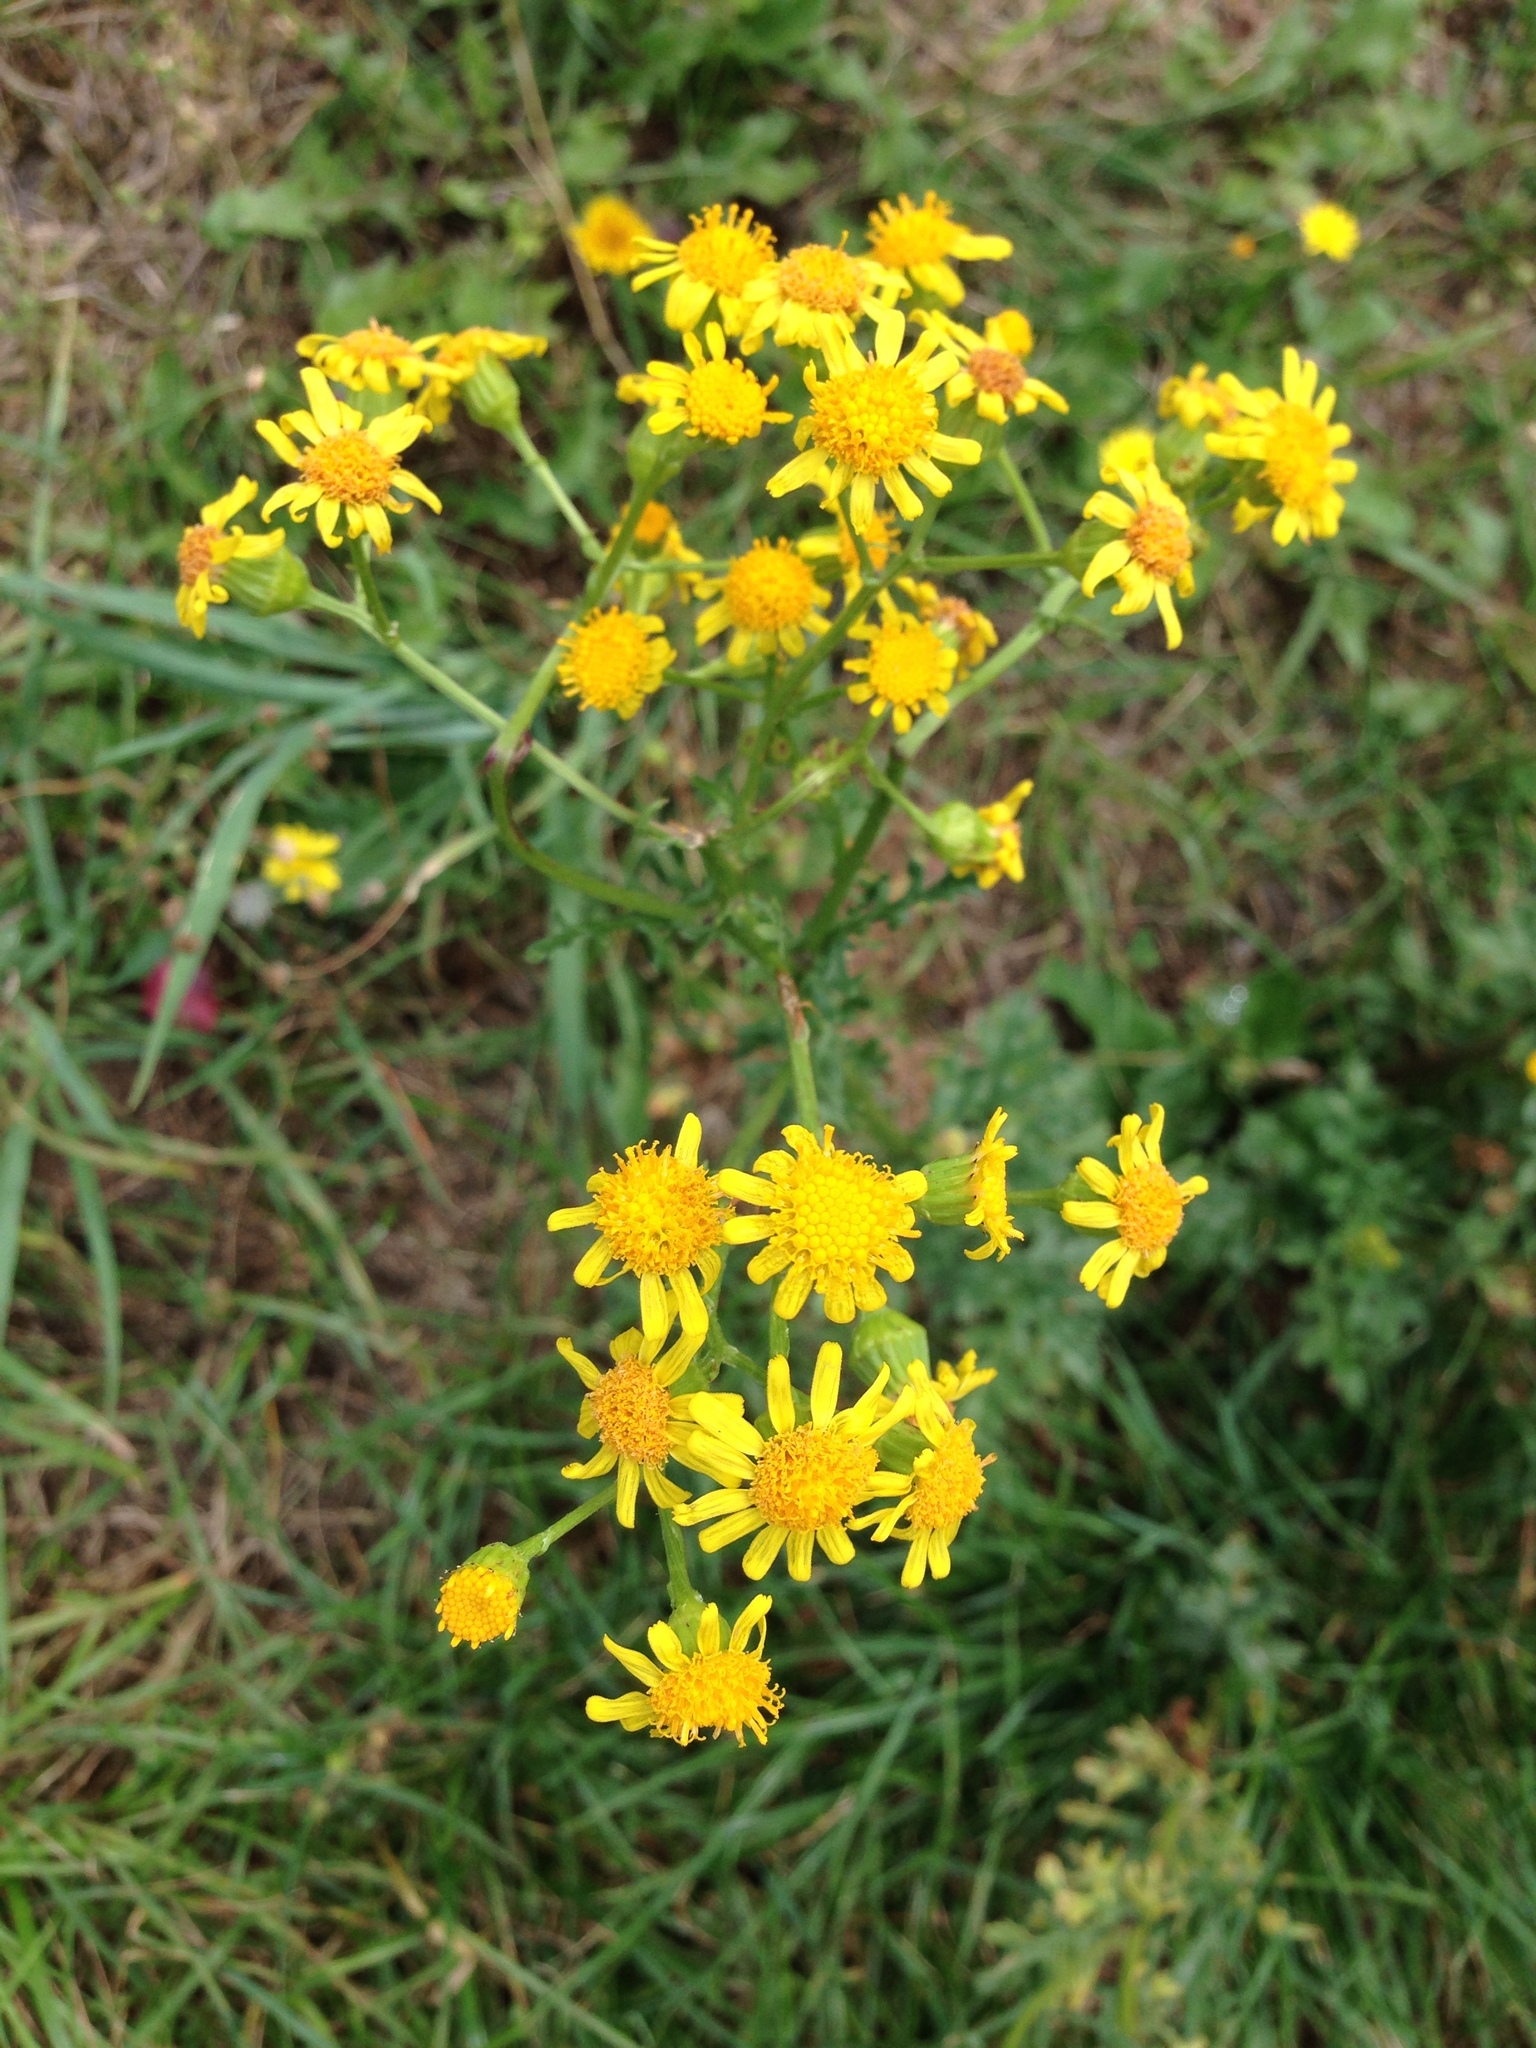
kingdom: Plantae
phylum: Tracheophyta
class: Magnoliopsida
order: Asterales
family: Asteraceae
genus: Jacobaea
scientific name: Jacobaea vulgaris
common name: Stinking willie
